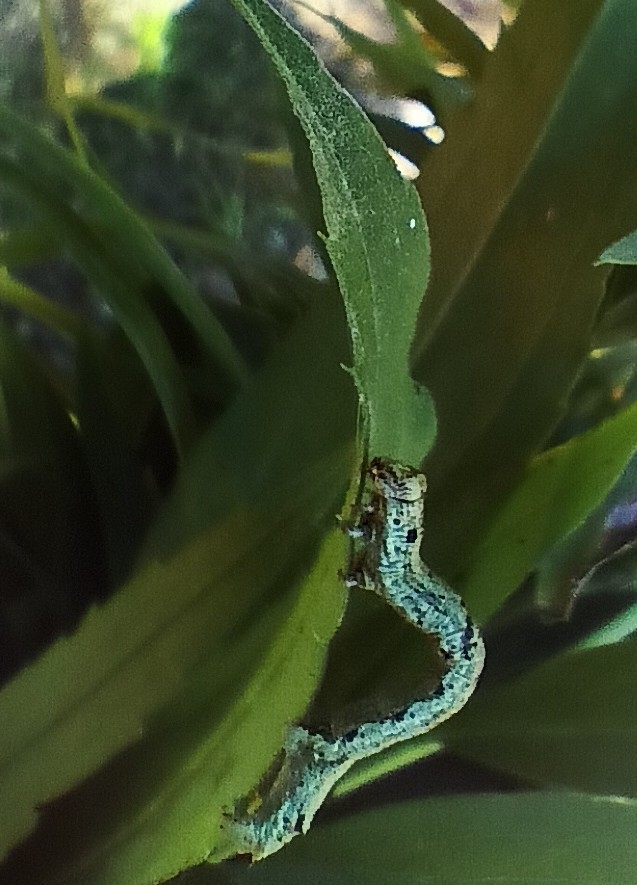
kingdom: Animalia
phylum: Arthropoda
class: Insecta
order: Lepidoptera
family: Geometridae
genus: Ectropis
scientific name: Ectropis crepuscularia
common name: Engrailed
